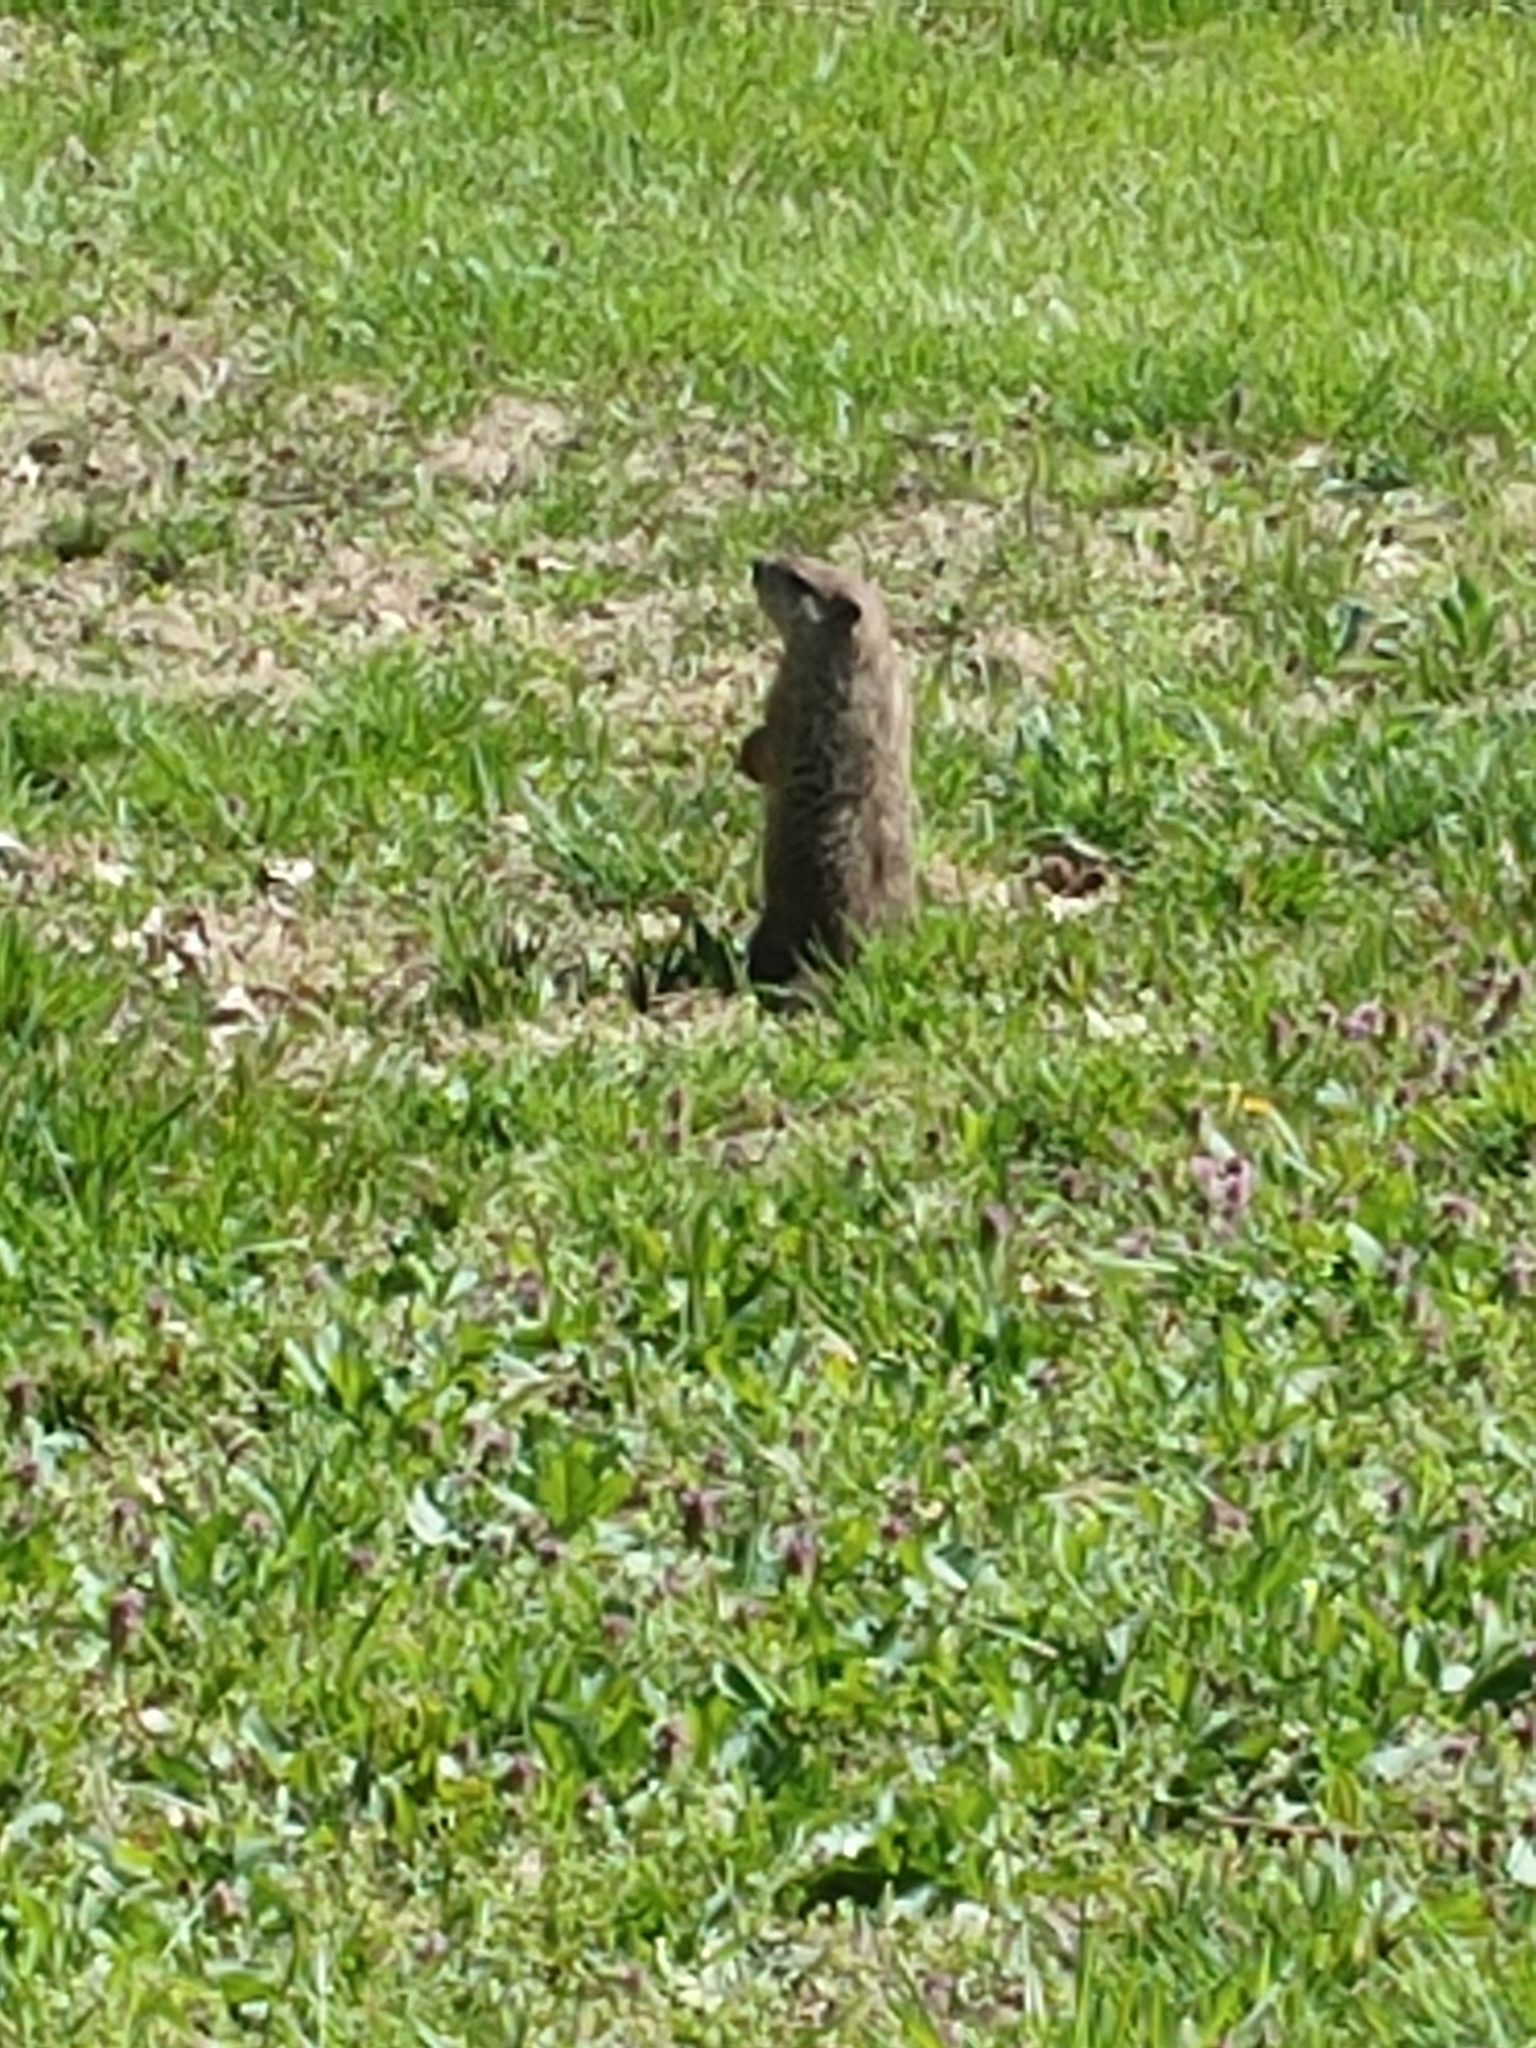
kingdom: Animalia
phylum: Chordata
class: Mammalia
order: Rodentia
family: Sciuridae
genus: Marmota
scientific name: Marmota monax
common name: Groundhog
